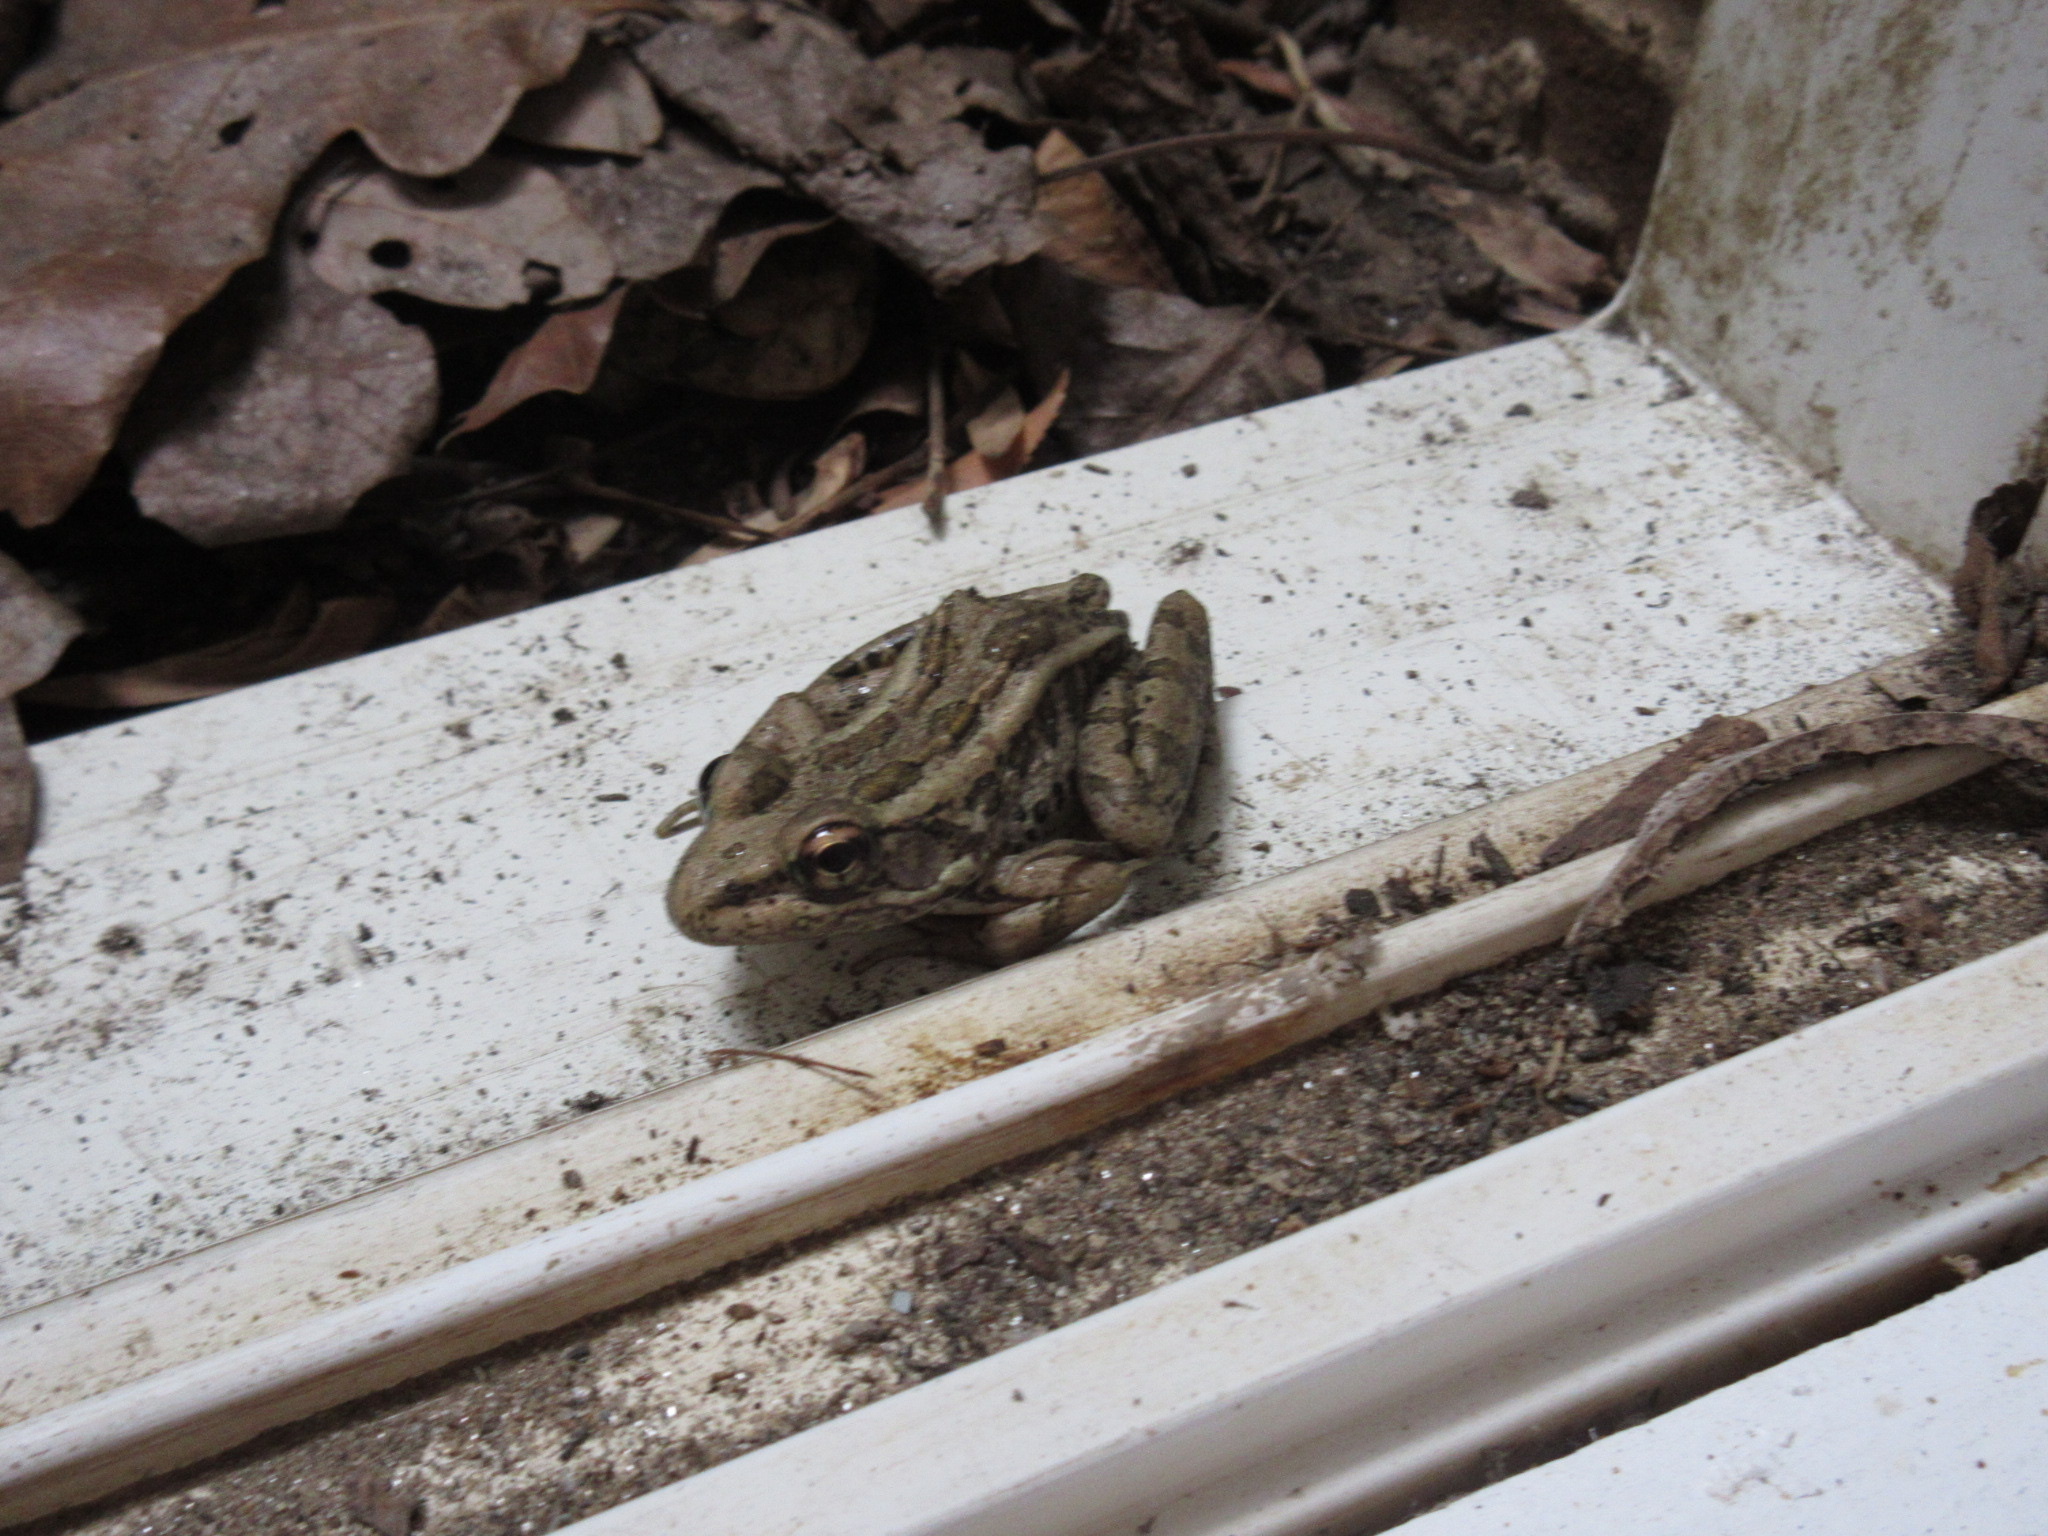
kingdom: Animalia
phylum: Chordata
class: Amphibia
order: Anura
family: Ranidae
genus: Lithobates
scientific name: Lithobates palustris
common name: Pickerel frog
